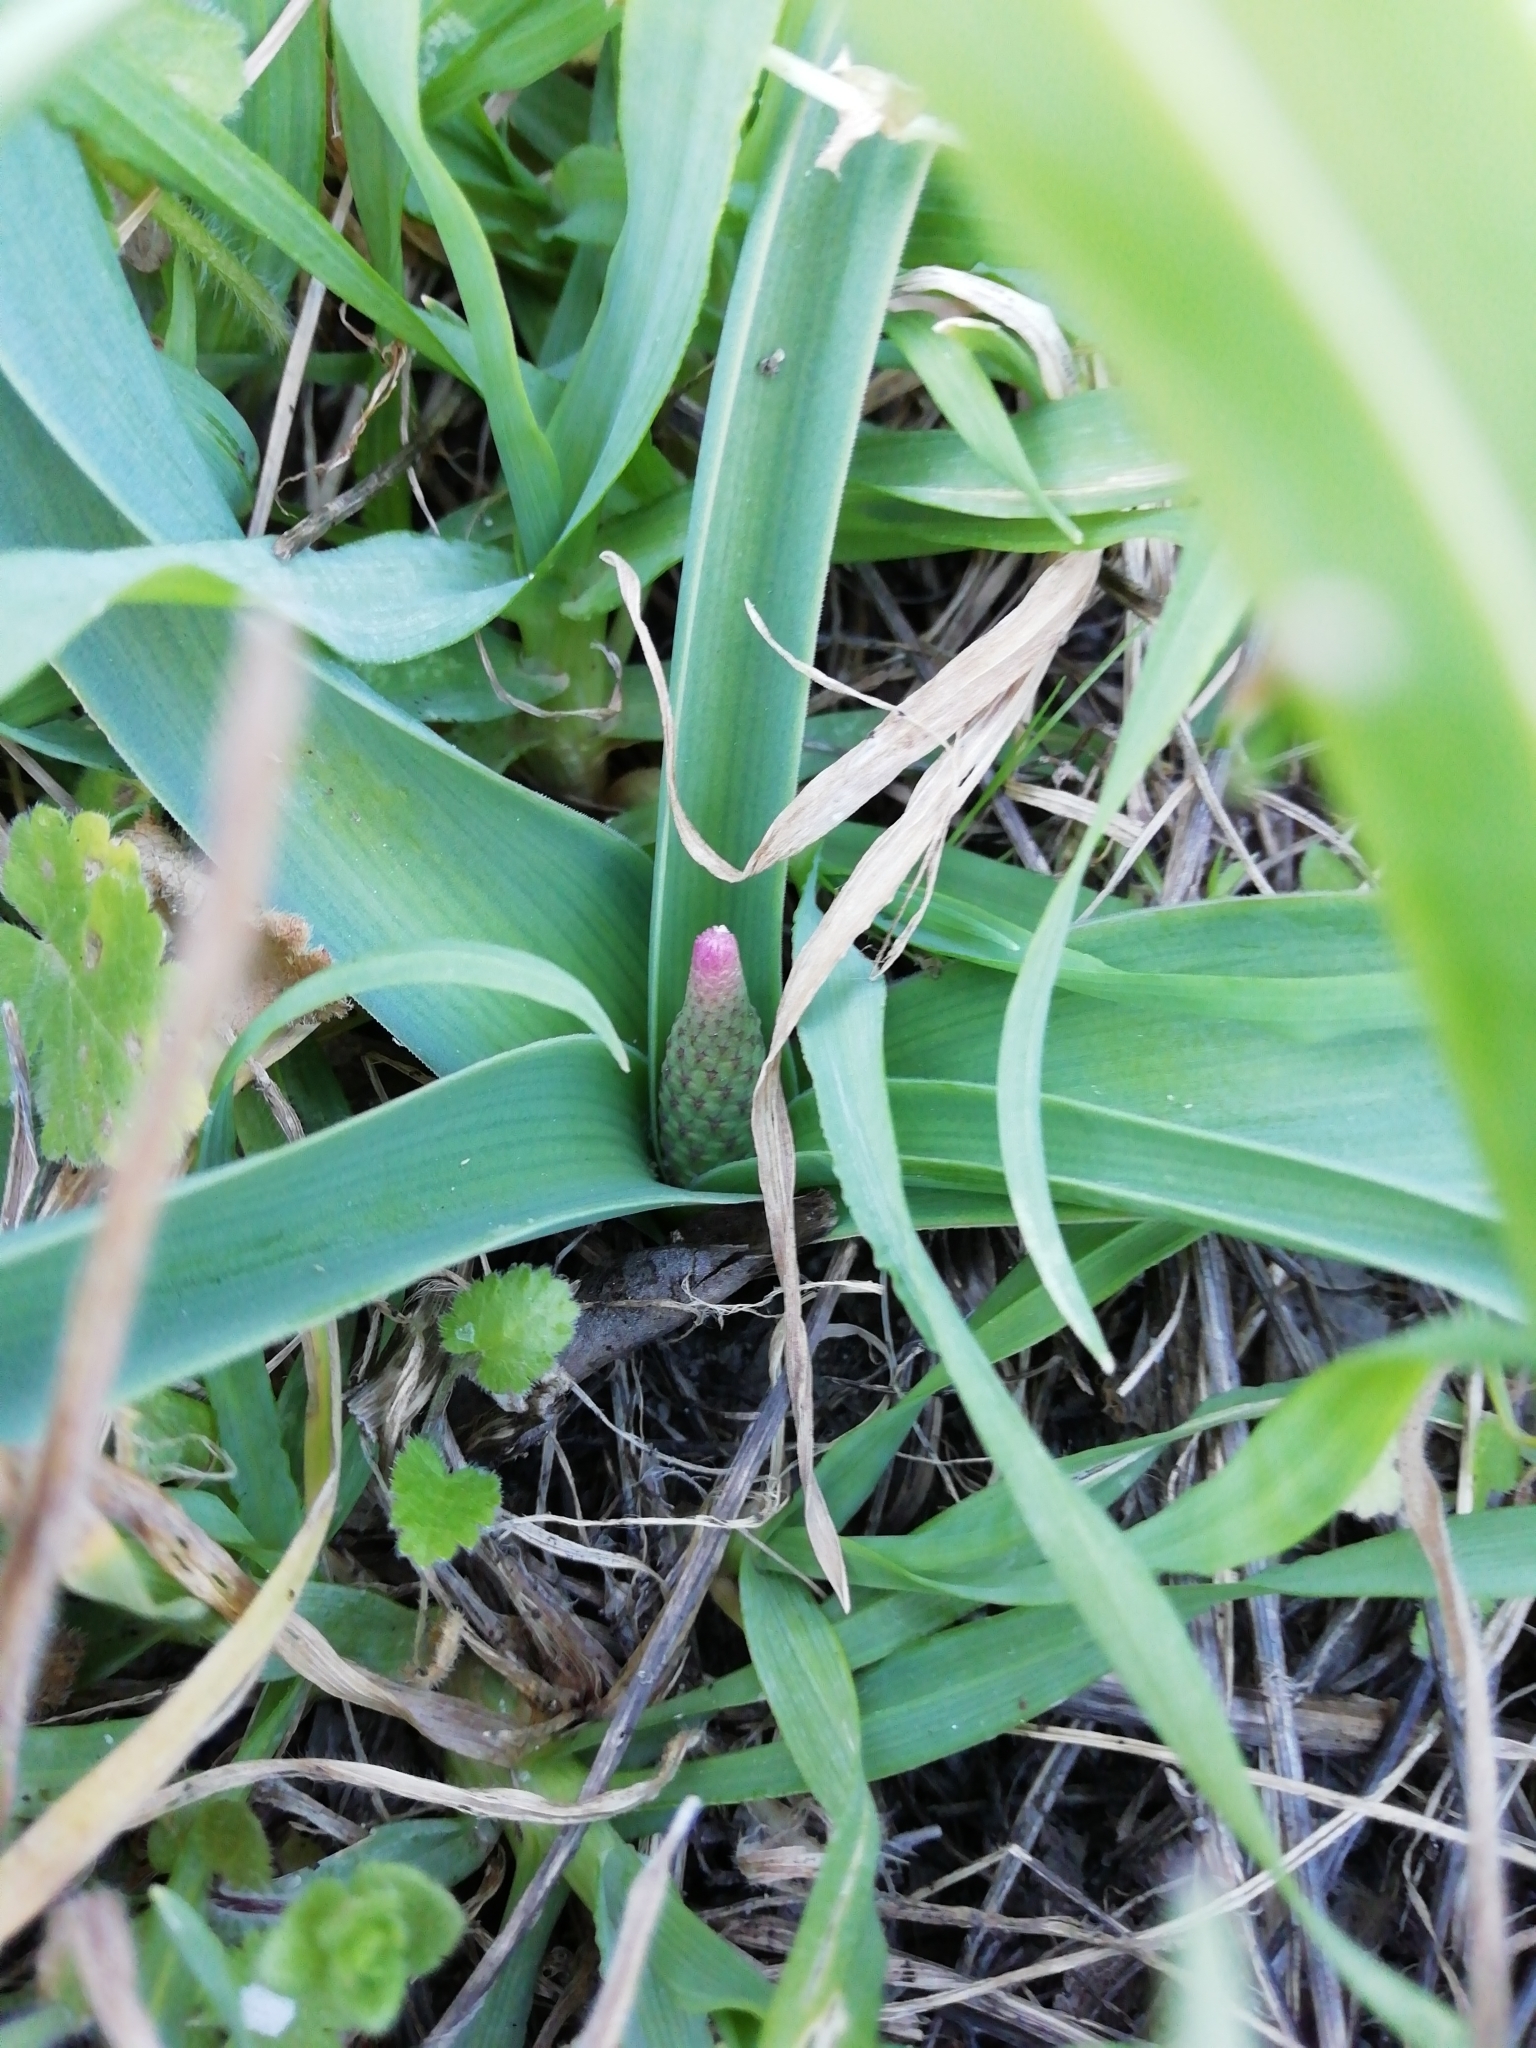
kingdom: Plantae
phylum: Tracheophyta
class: Liliopsida
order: Asparagales
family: Asparagaceae
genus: Muscari
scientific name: Muscari comosum
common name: Tassel hyacinth
